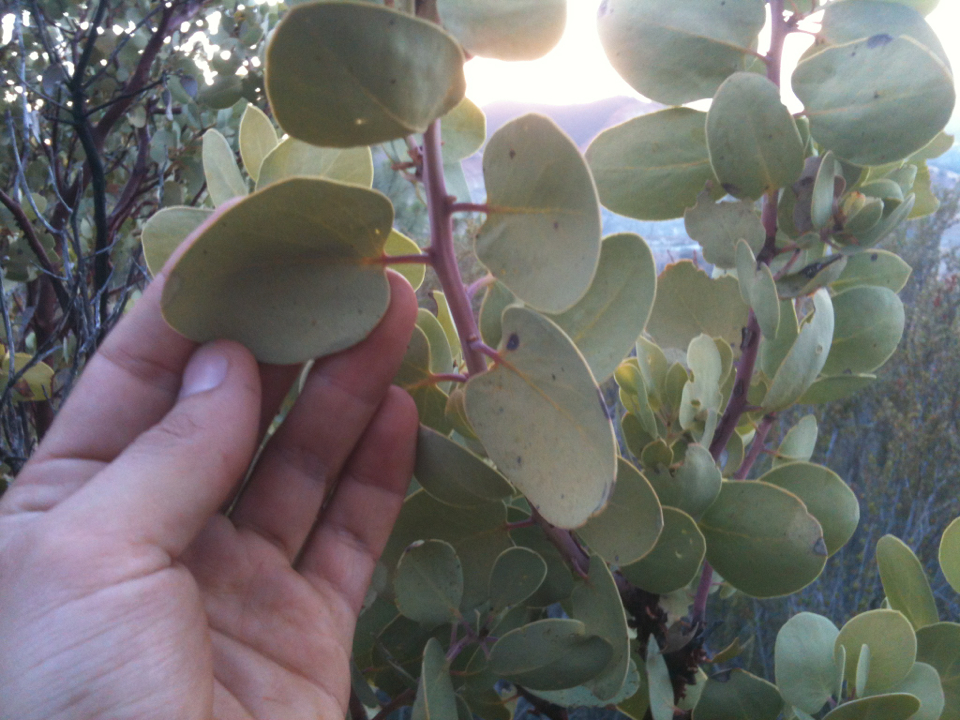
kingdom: Plantae
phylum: Tracheophyta
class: Magnoliopsida
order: Ericales
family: Ericaceae
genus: Arctostaphylos
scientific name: Arctostaphylos glauca
